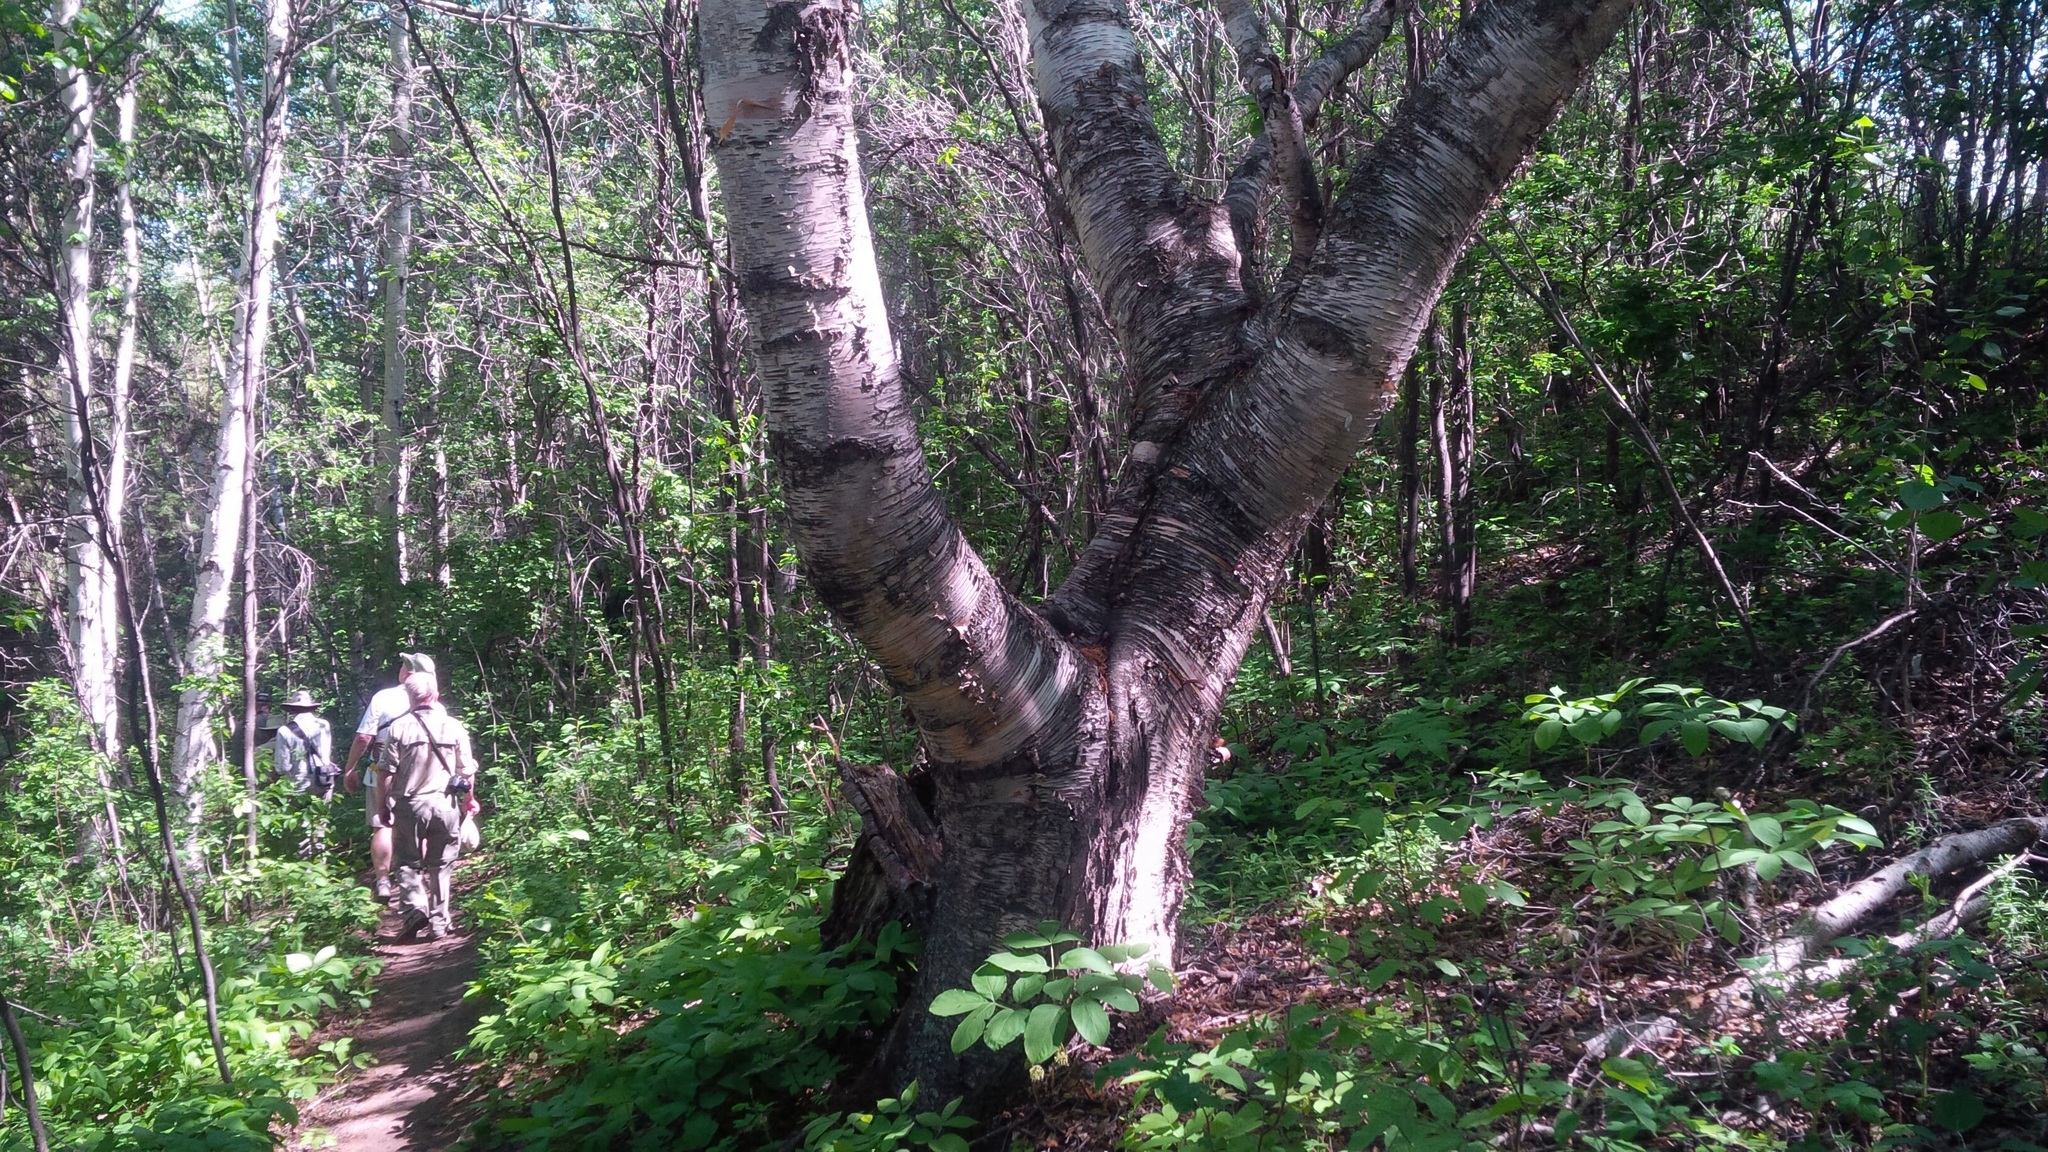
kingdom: Plantae
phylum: Tracheophyta
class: Magnoliopsida
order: Fagales
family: Betulaceae
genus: Betula
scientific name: Betula papyrifera
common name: Paper birch
